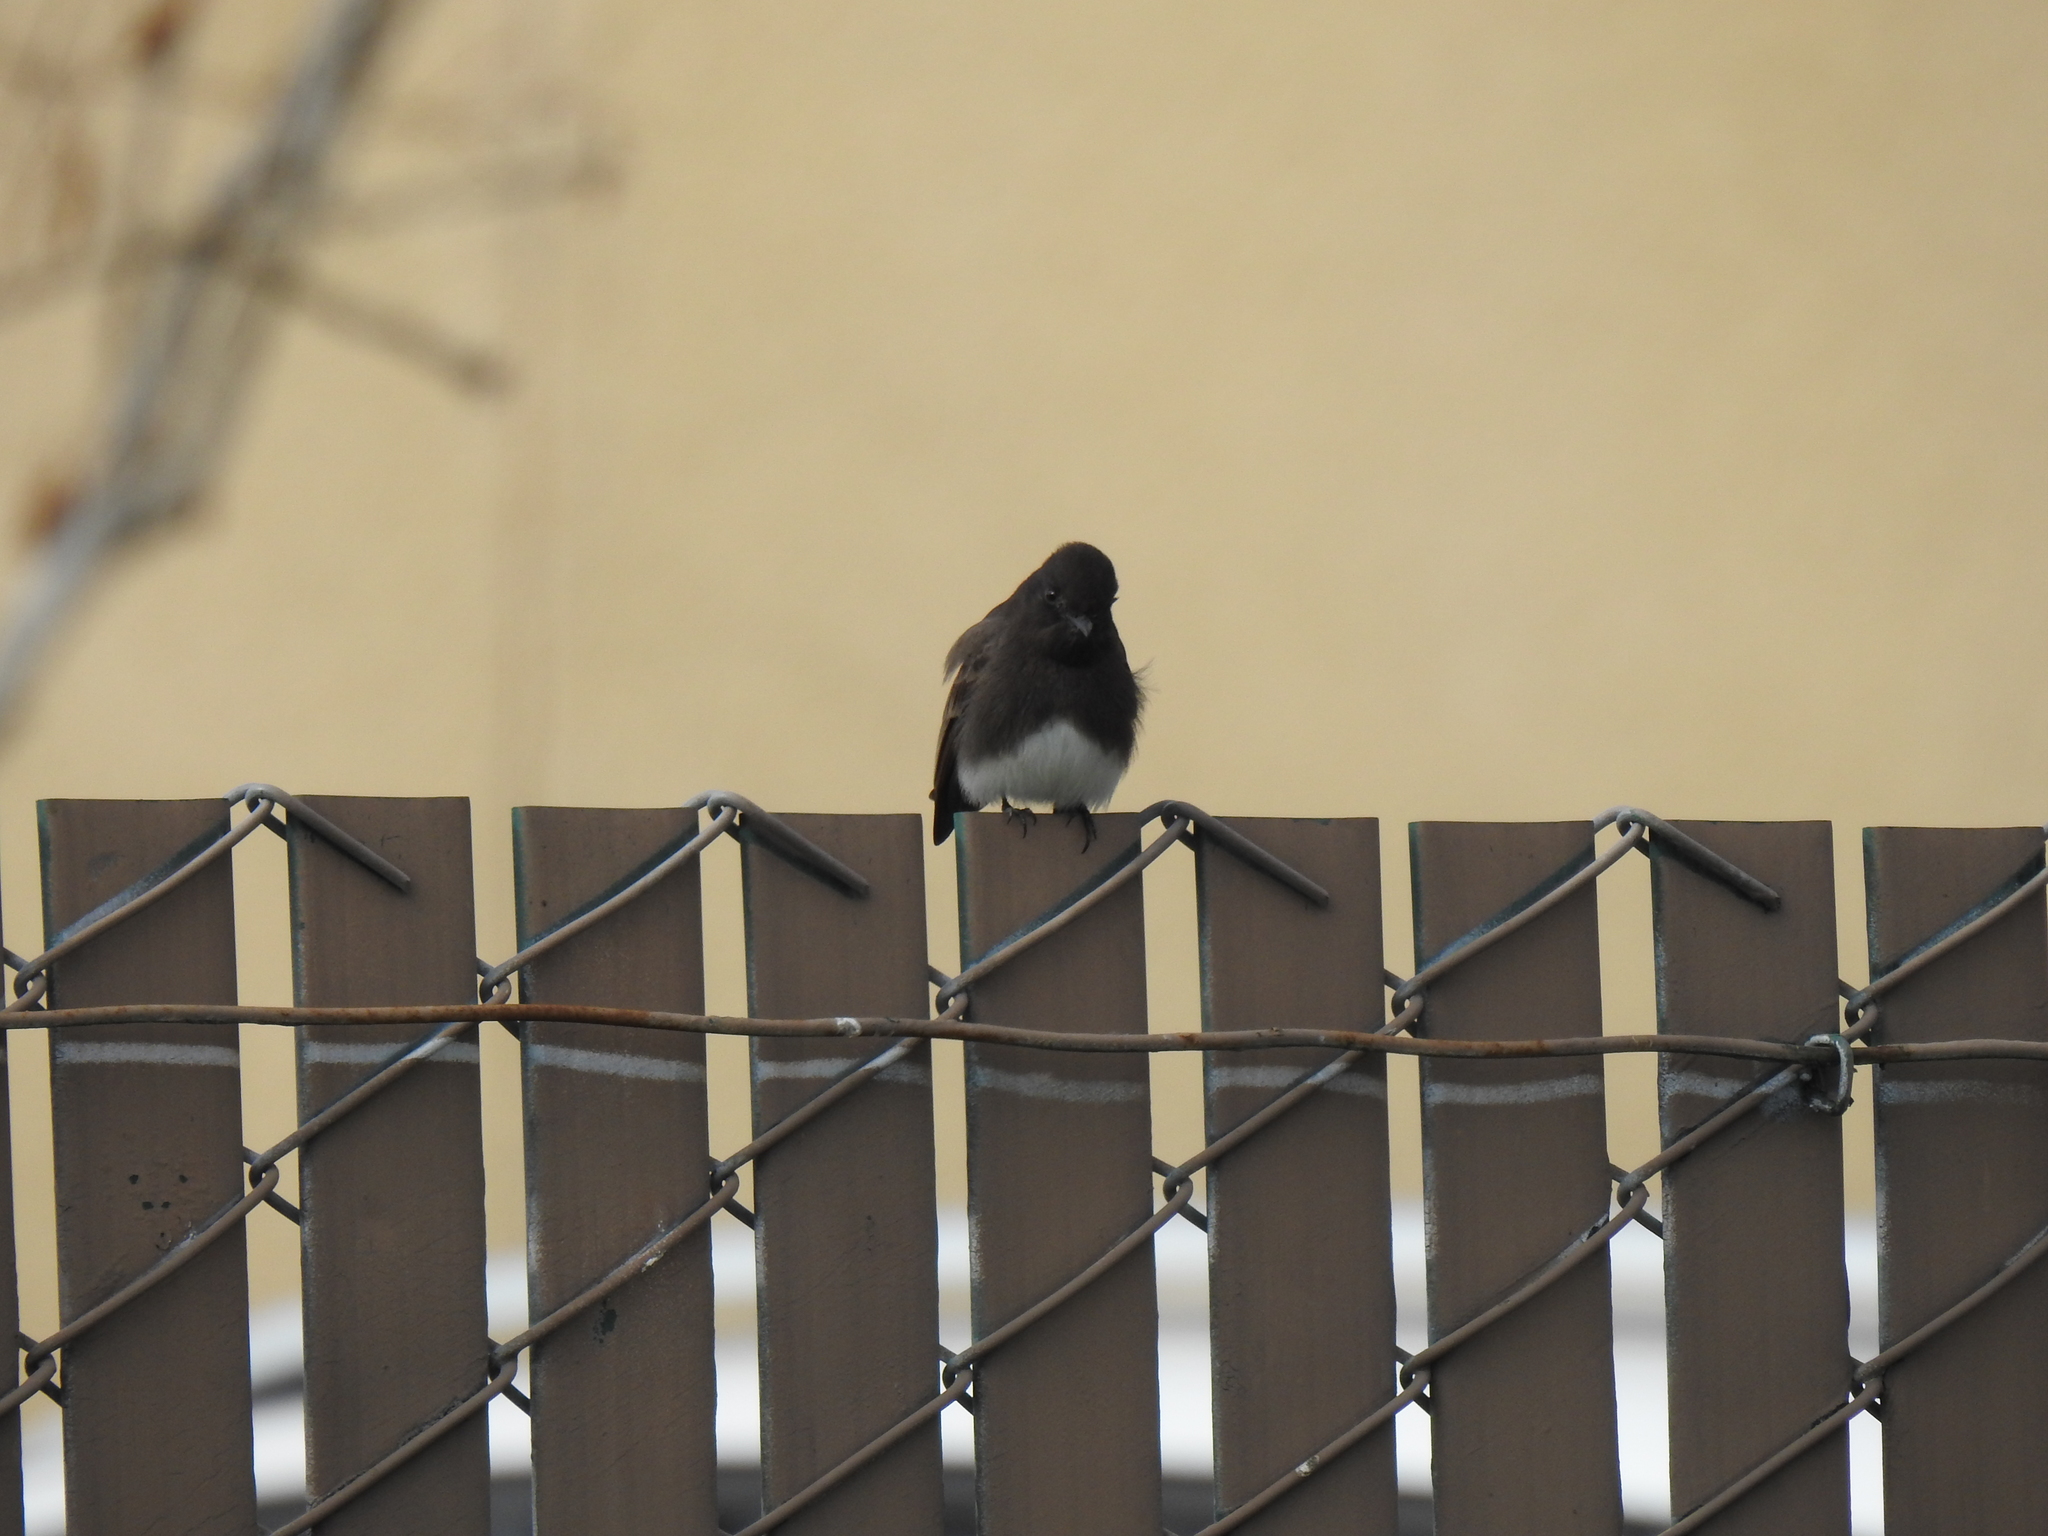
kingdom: Animalia
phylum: Chordata
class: Aves
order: Passeriformes
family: Tyrannidae
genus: Sayornis
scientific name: Sayornis nigricans
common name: Black phoebe
